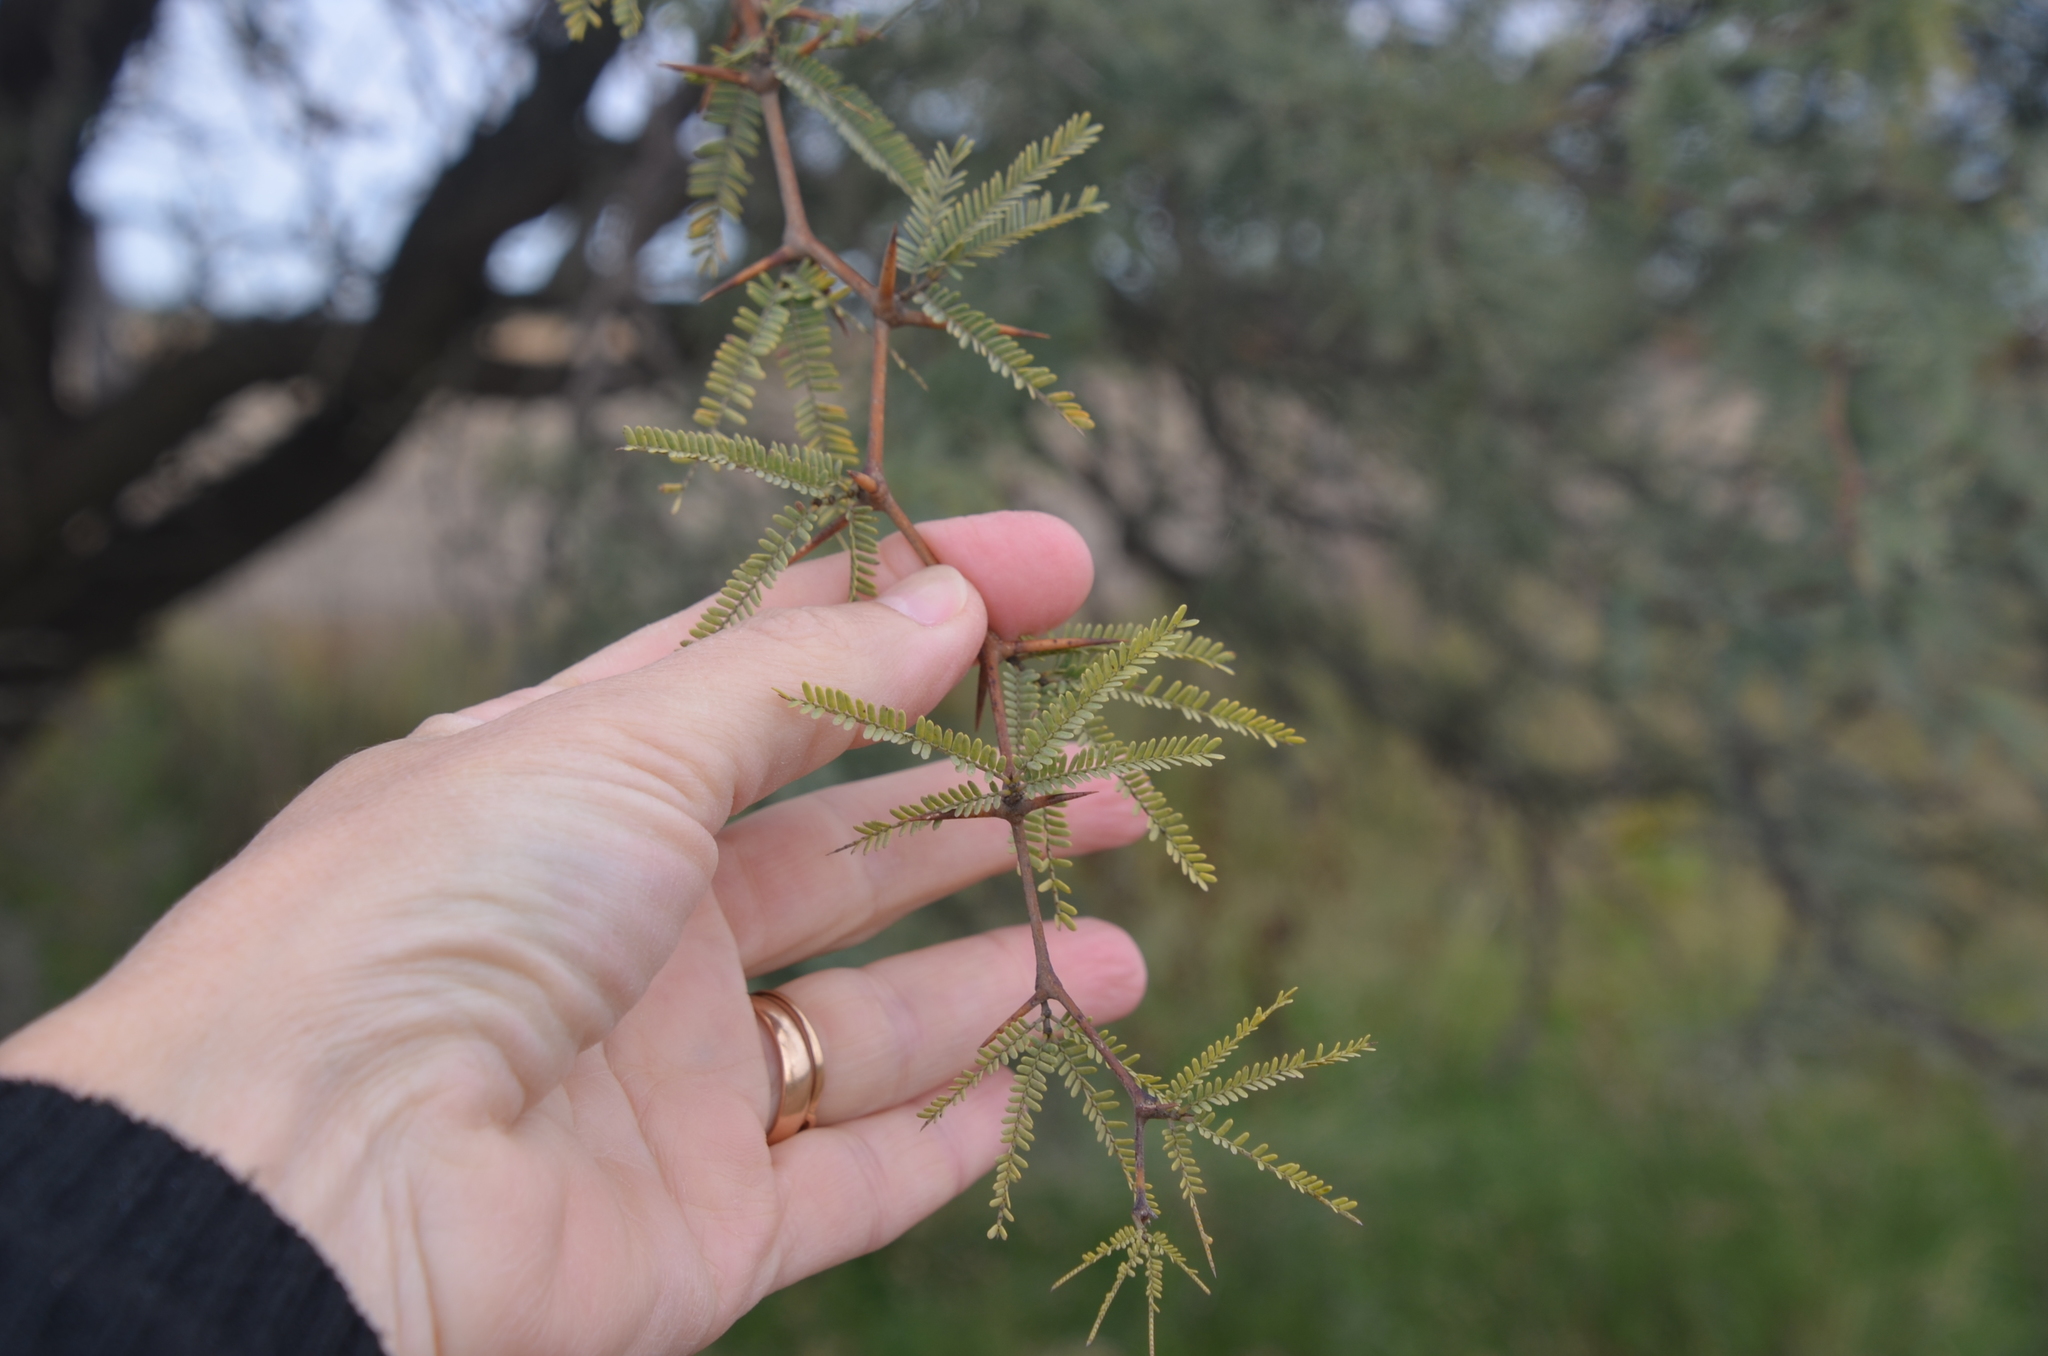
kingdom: Plantae
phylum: Tracheophyta
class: Magnoliopsida
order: Fabales
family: Fabaceae
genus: Prosopis
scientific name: Prosopis caldenia
